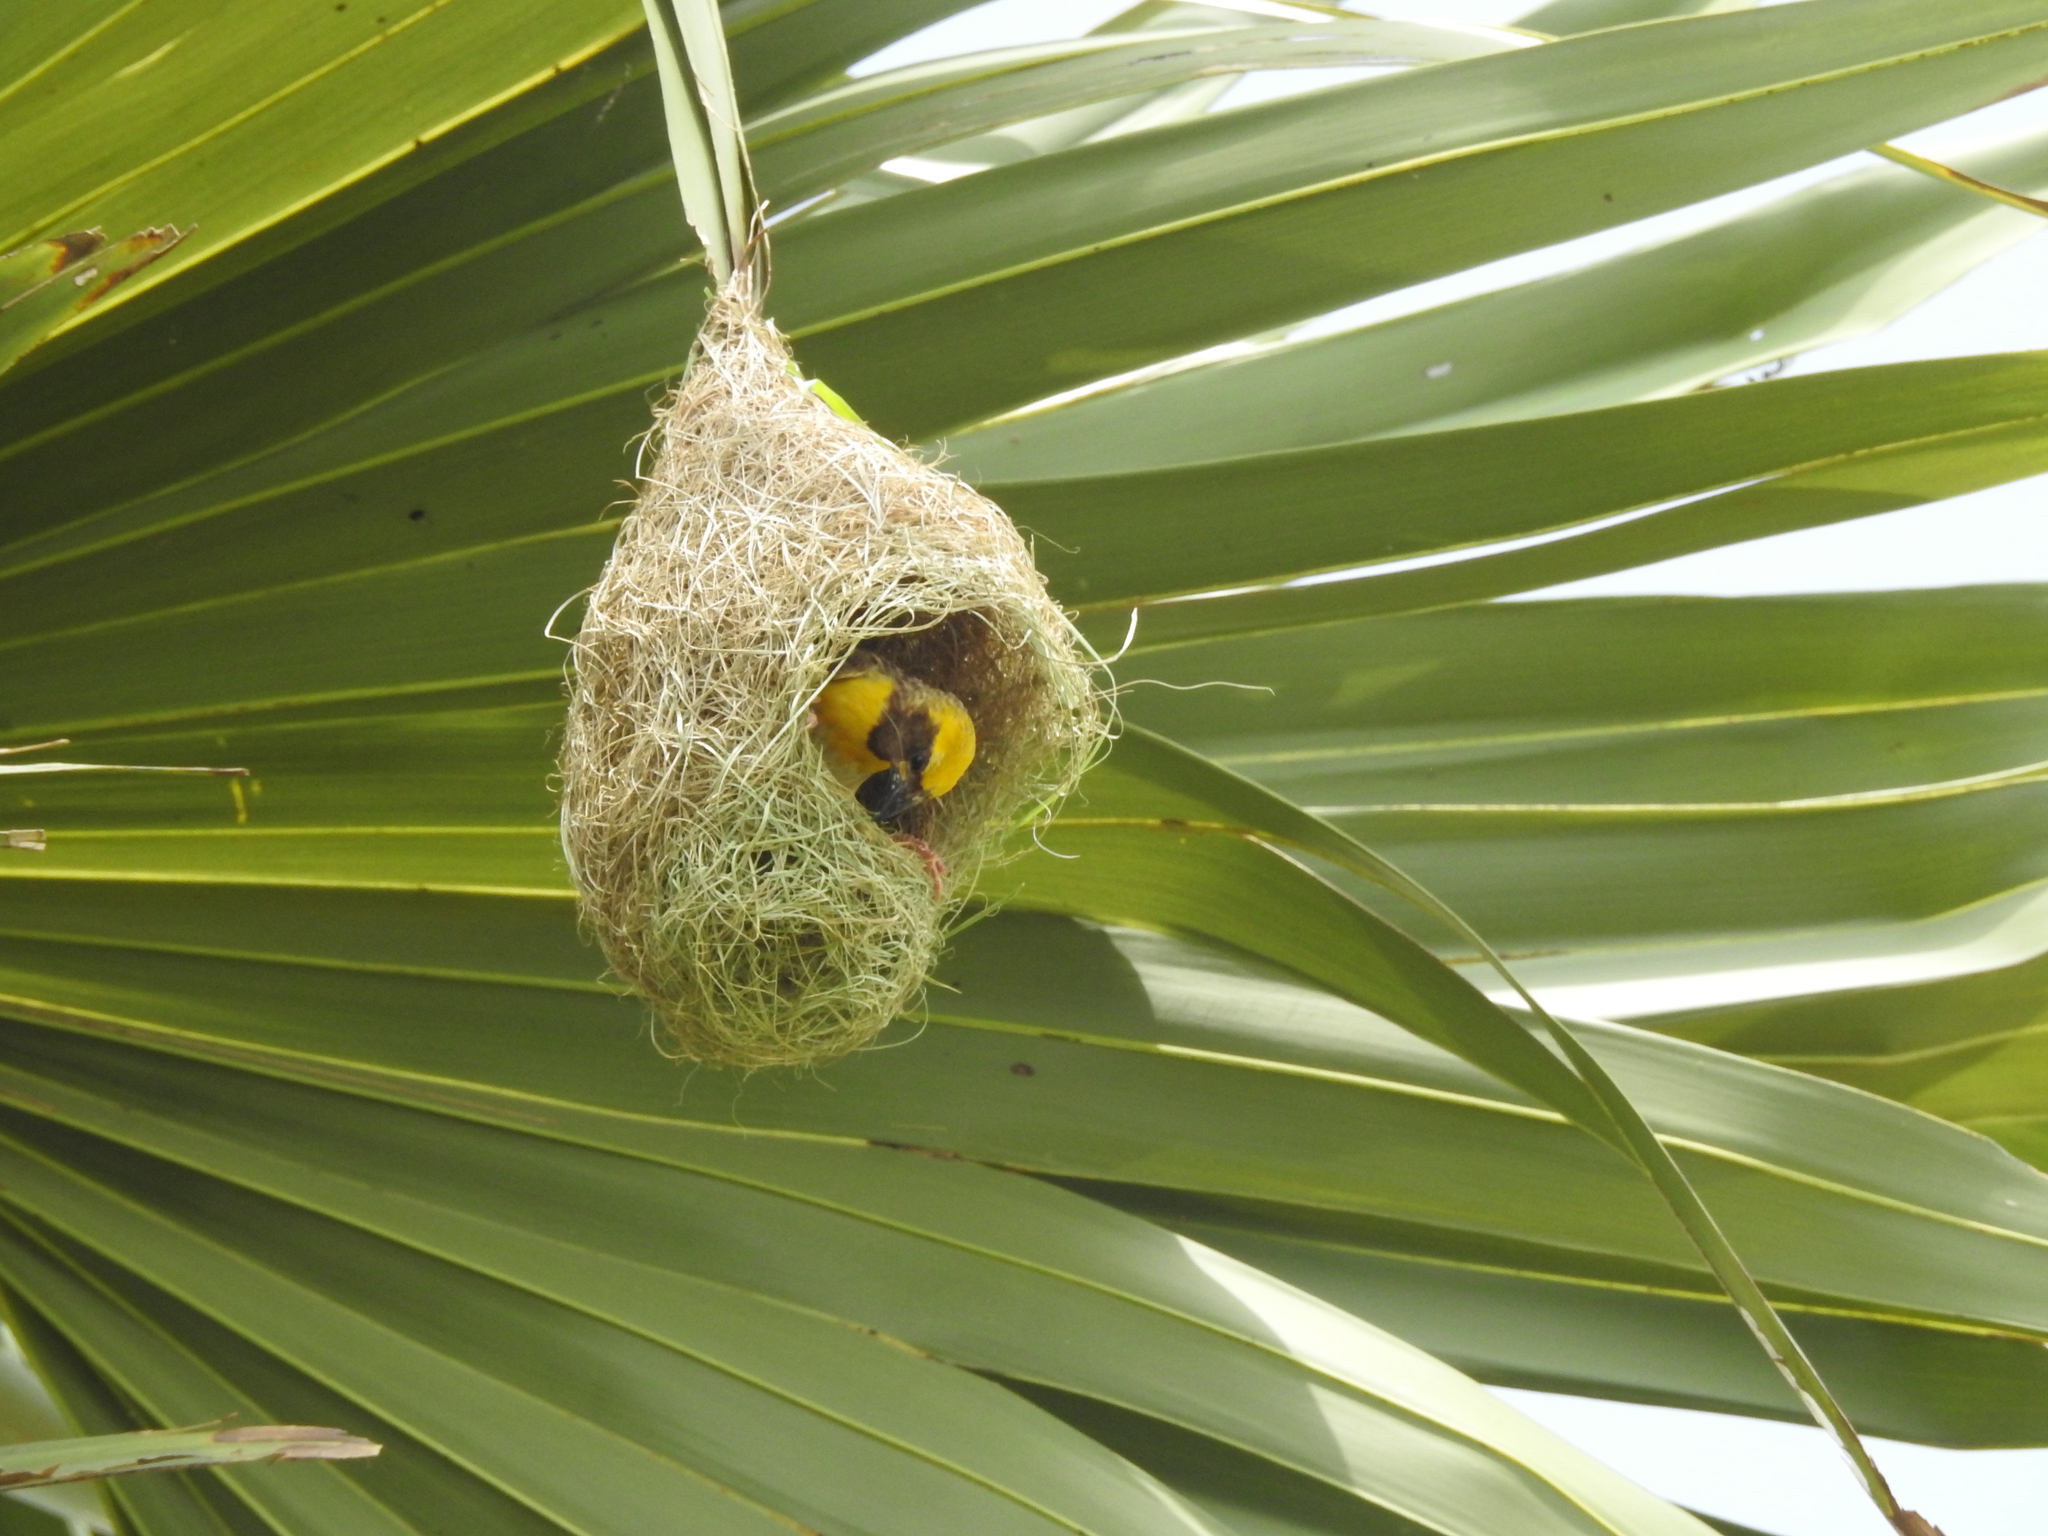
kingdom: Animalia
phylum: Chordata
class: Aves
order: Passeriformes
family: Ploceidae
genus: Ploceus
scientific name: Ploceus philippinus
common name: Baya weaver
